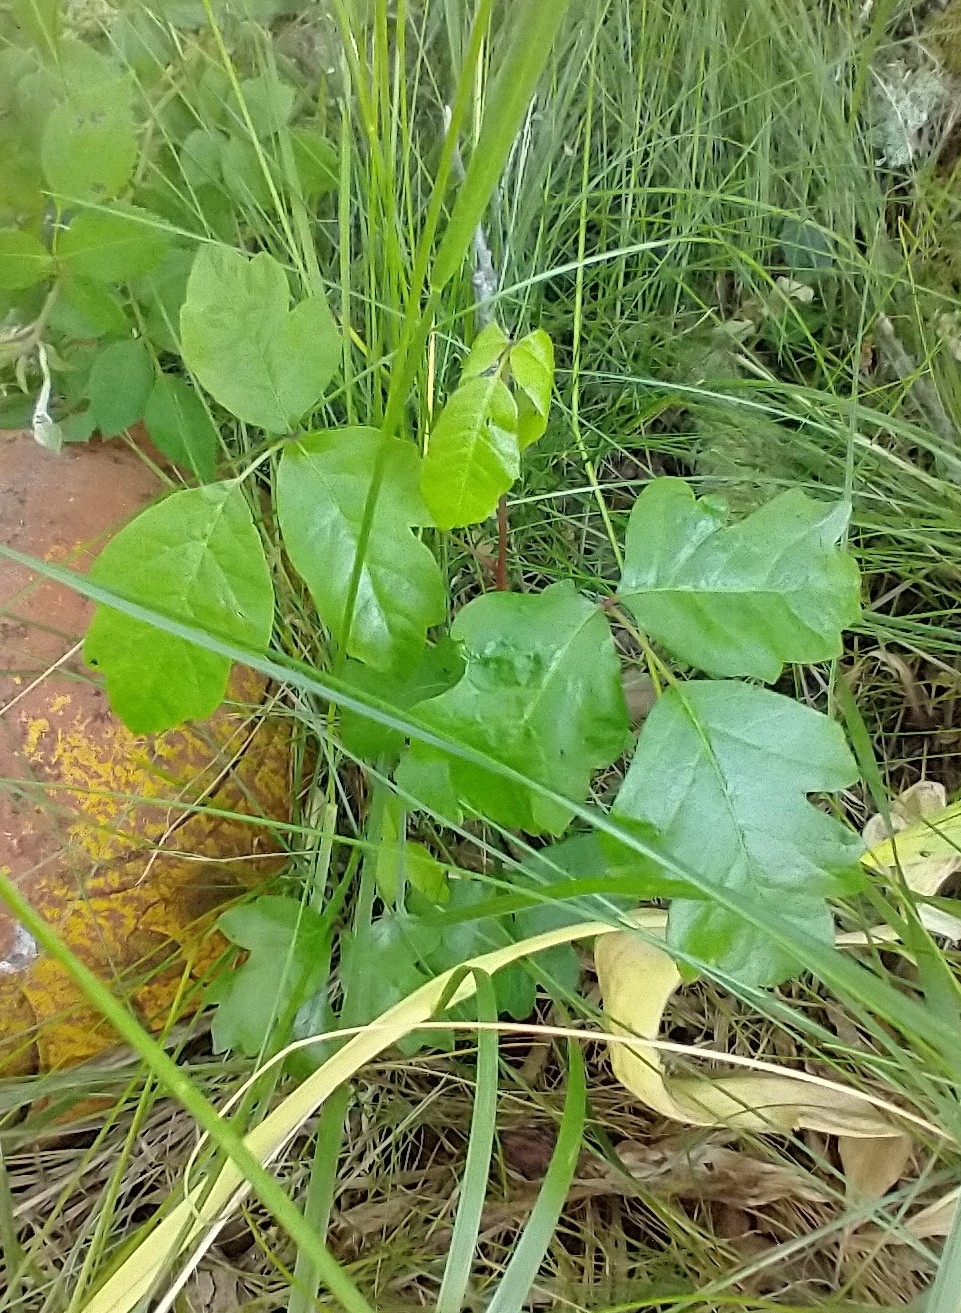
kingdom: Plantae
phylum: Tracheophyta
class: Magnoliopsida
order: Sapindales
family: Anacardiaceae
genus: Toxicodendron
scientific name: Toxicodendron diversilobum
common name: Pacific poison-oak
